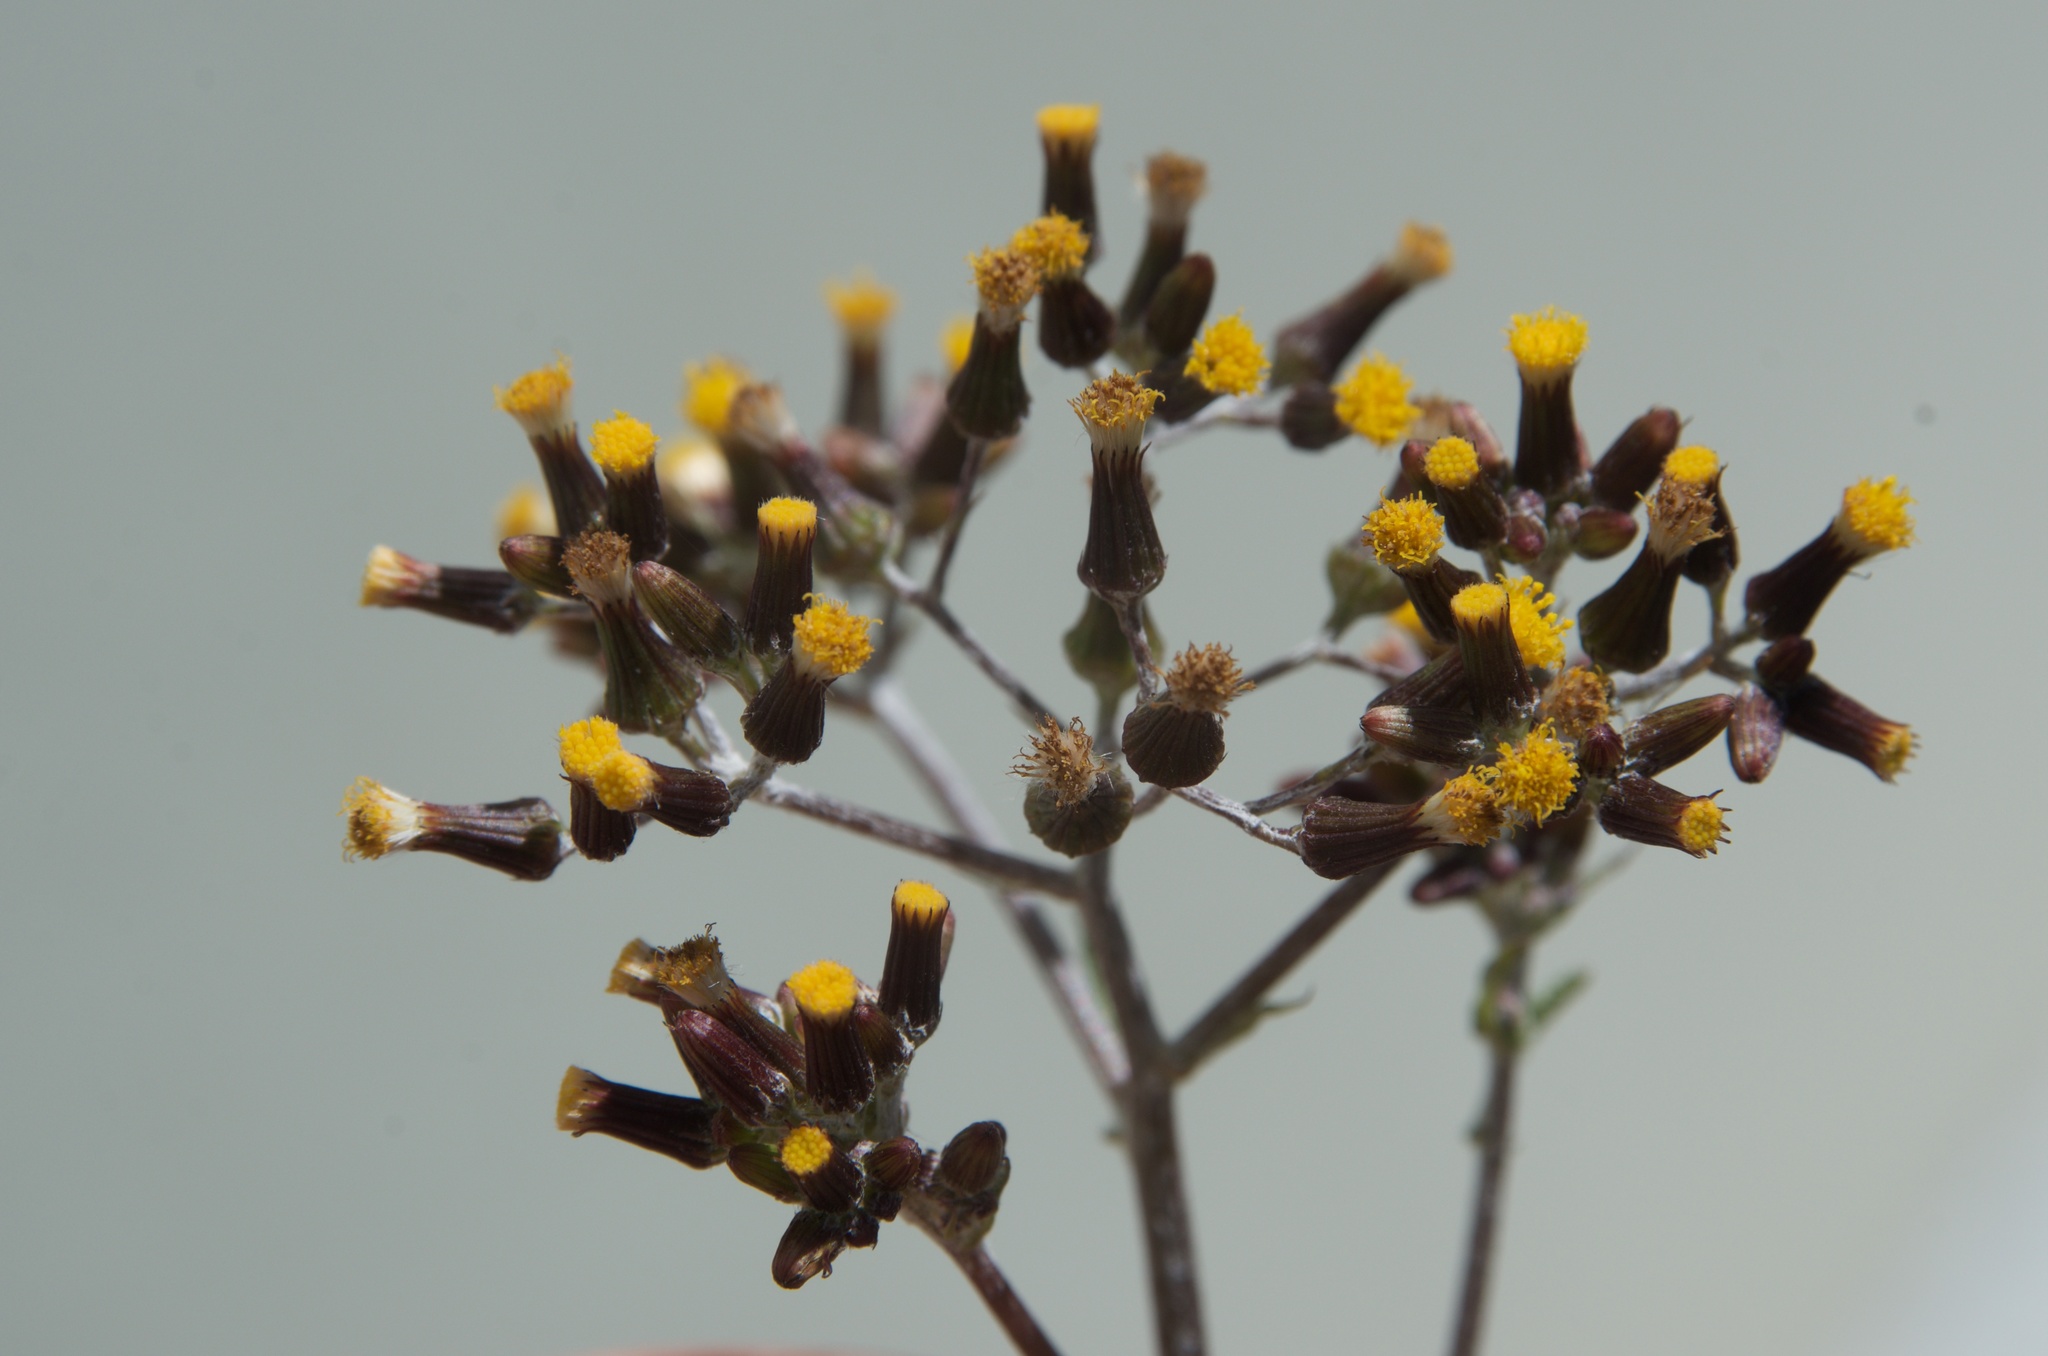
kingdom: Plantae
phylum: Tracheophyta
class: Magnoliopsida
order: Asterales
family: Asteraceae
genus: Senecio
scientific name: Senecio glomeratus
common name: Cutleaf burnweed
